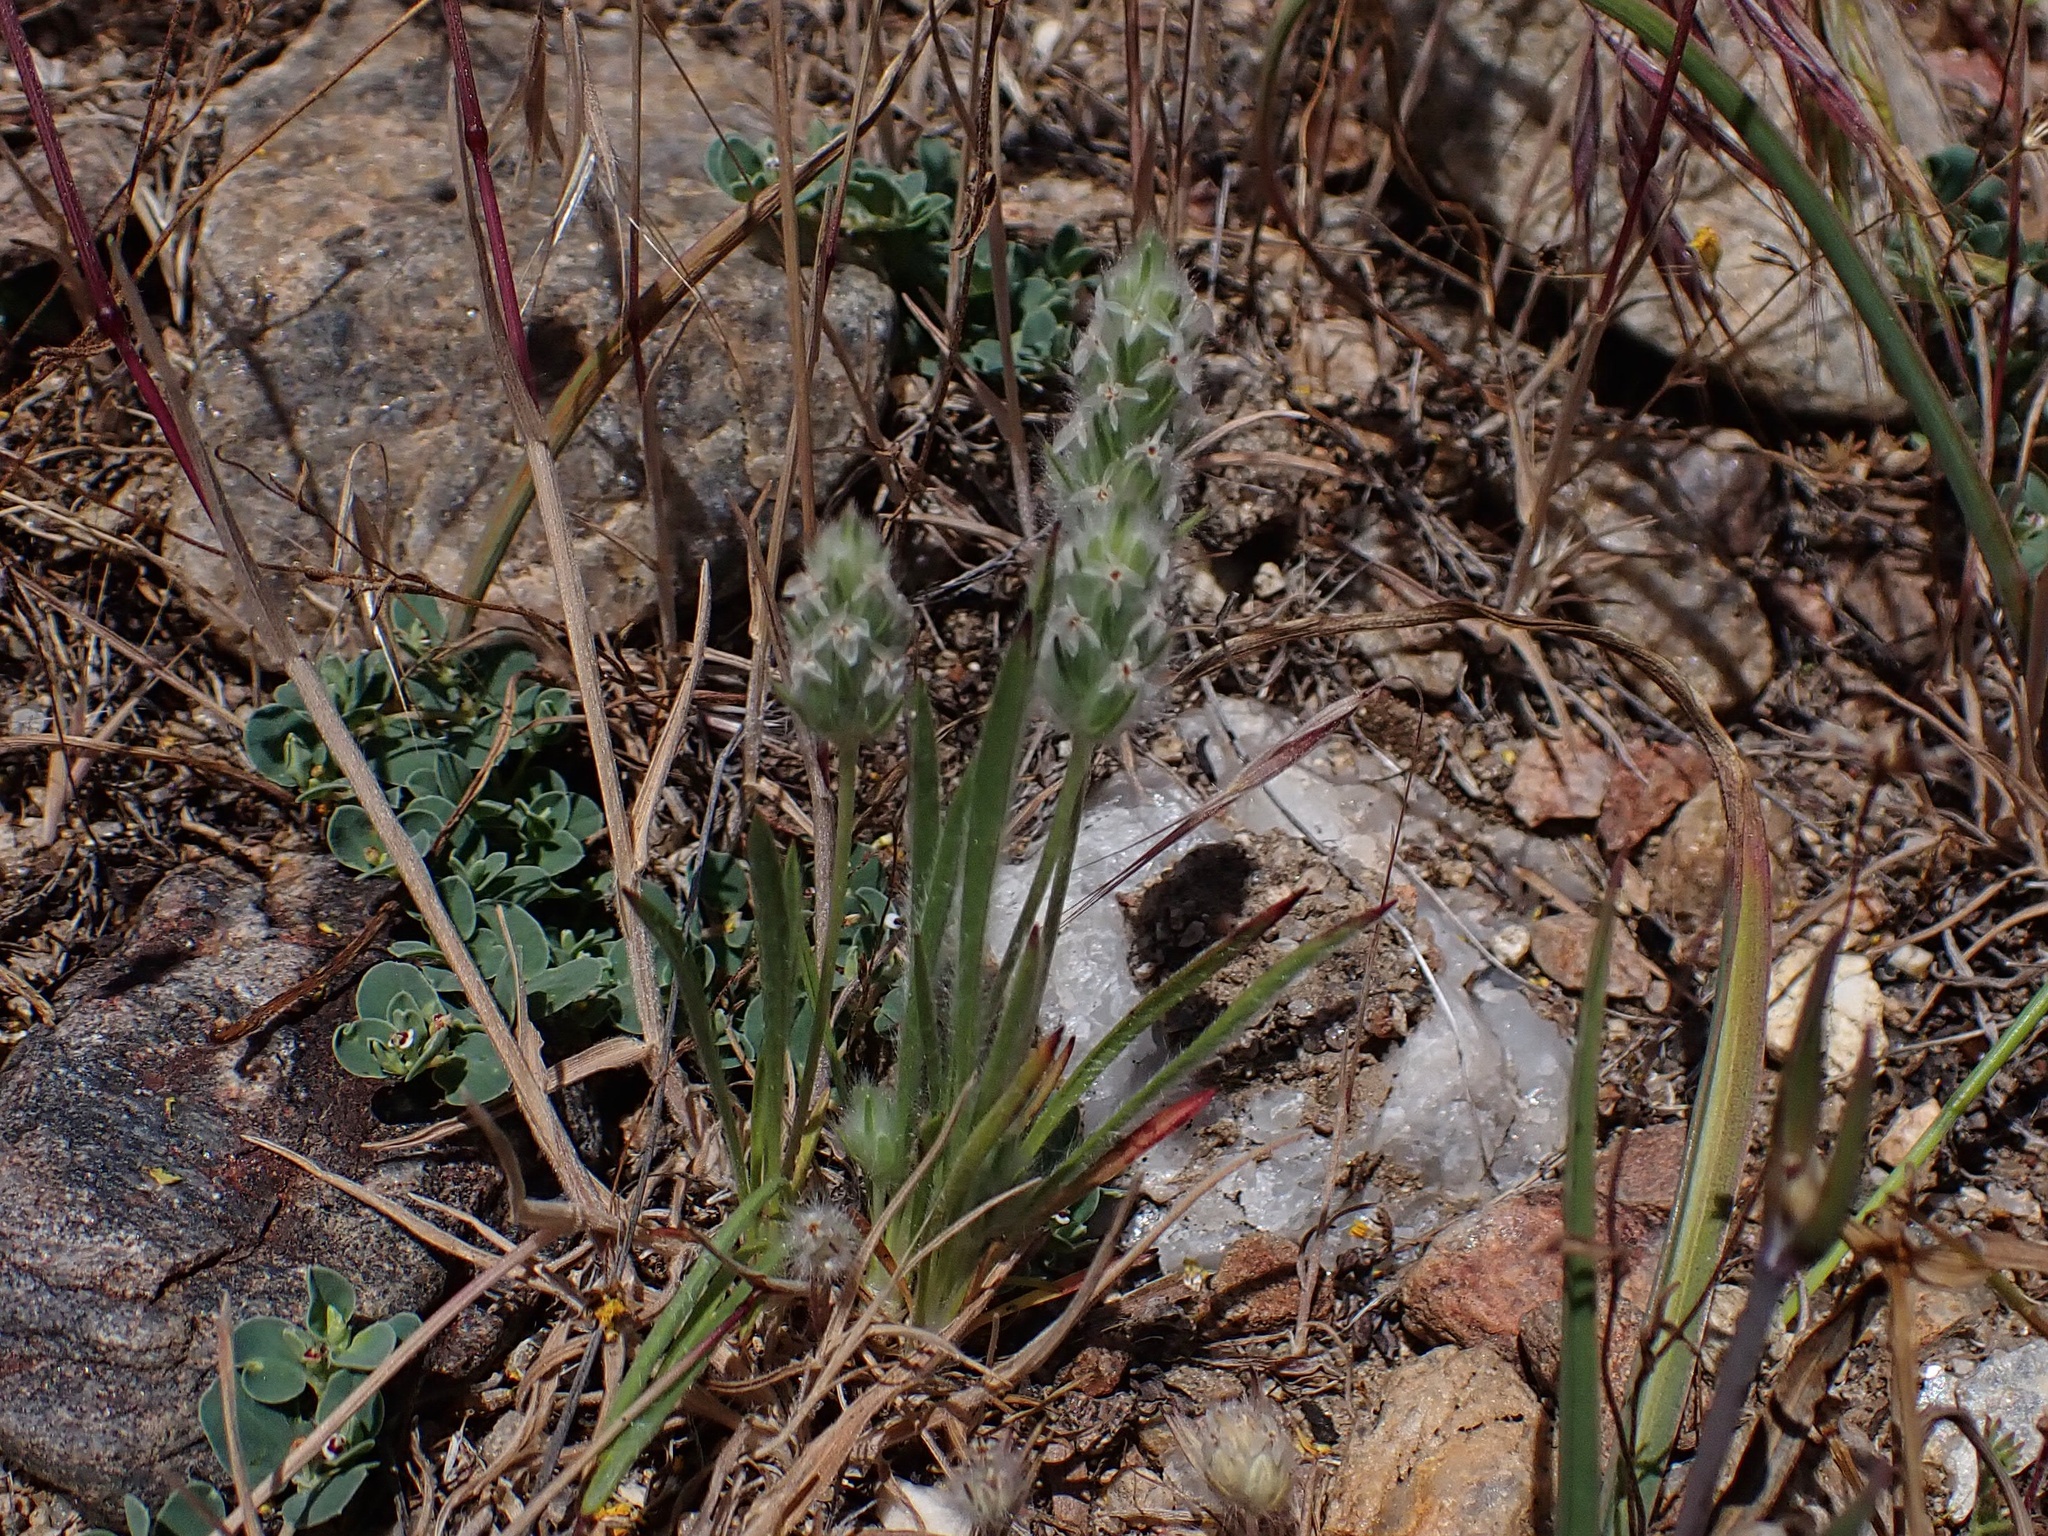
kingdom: Plantae
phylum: Tracheophyta
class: Magnoliopsida
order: Lamiales
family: Plantaginaceae
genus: Plantago
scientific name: Plantago patagonica
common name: Patagonia indian-wheat
